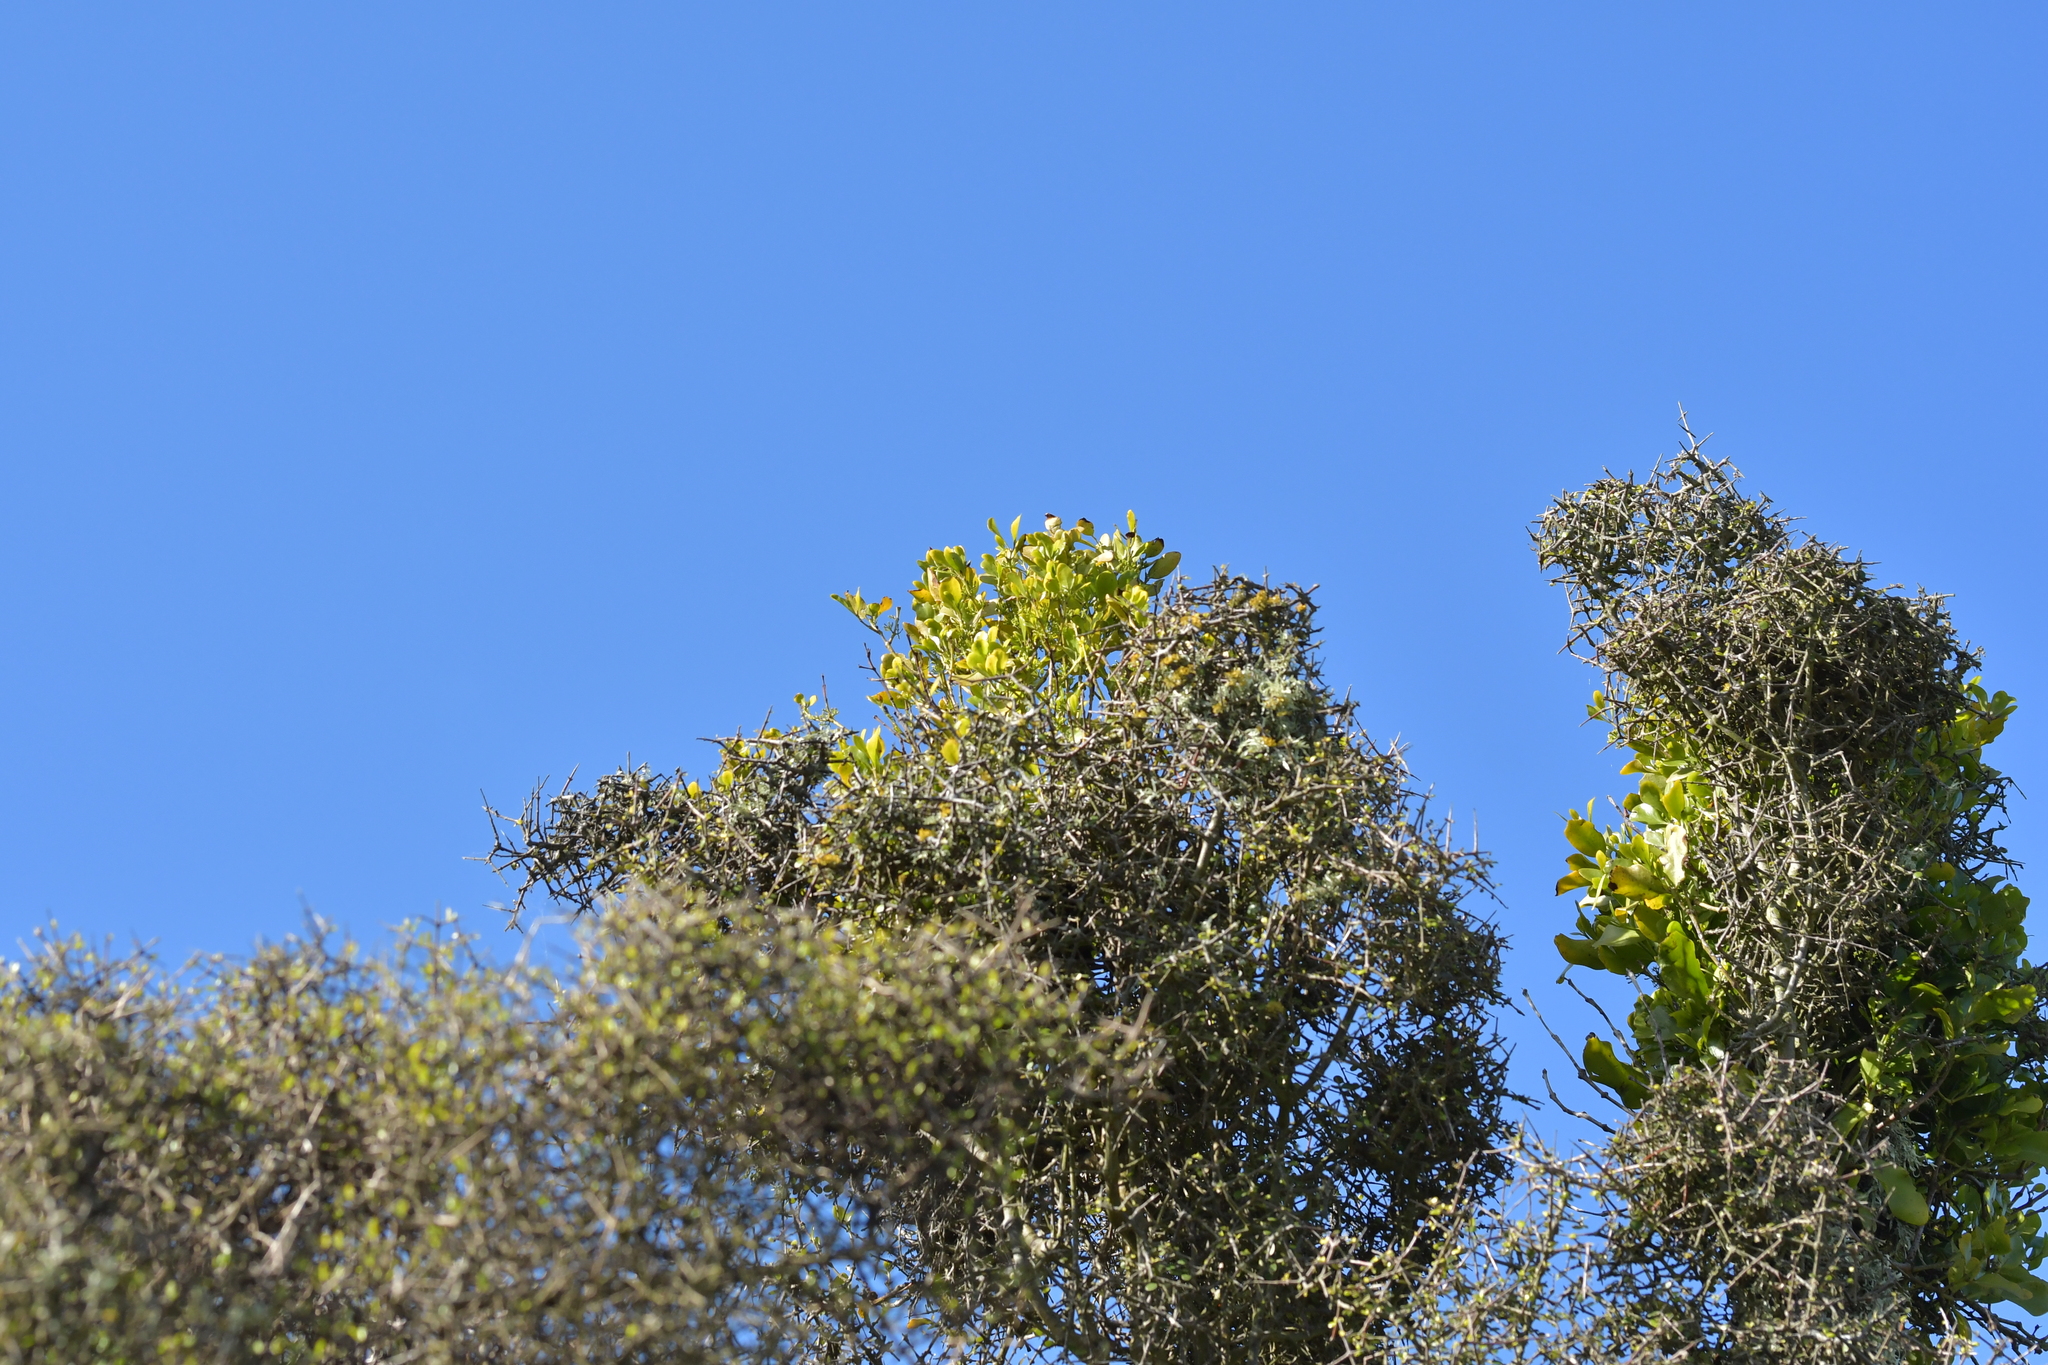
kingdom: Plantae
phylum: Tracheophyta
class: Magnoliopsida
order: Santalales
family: Loranthaceae
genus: Ileostylus
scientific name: Ileostylus micranthus
